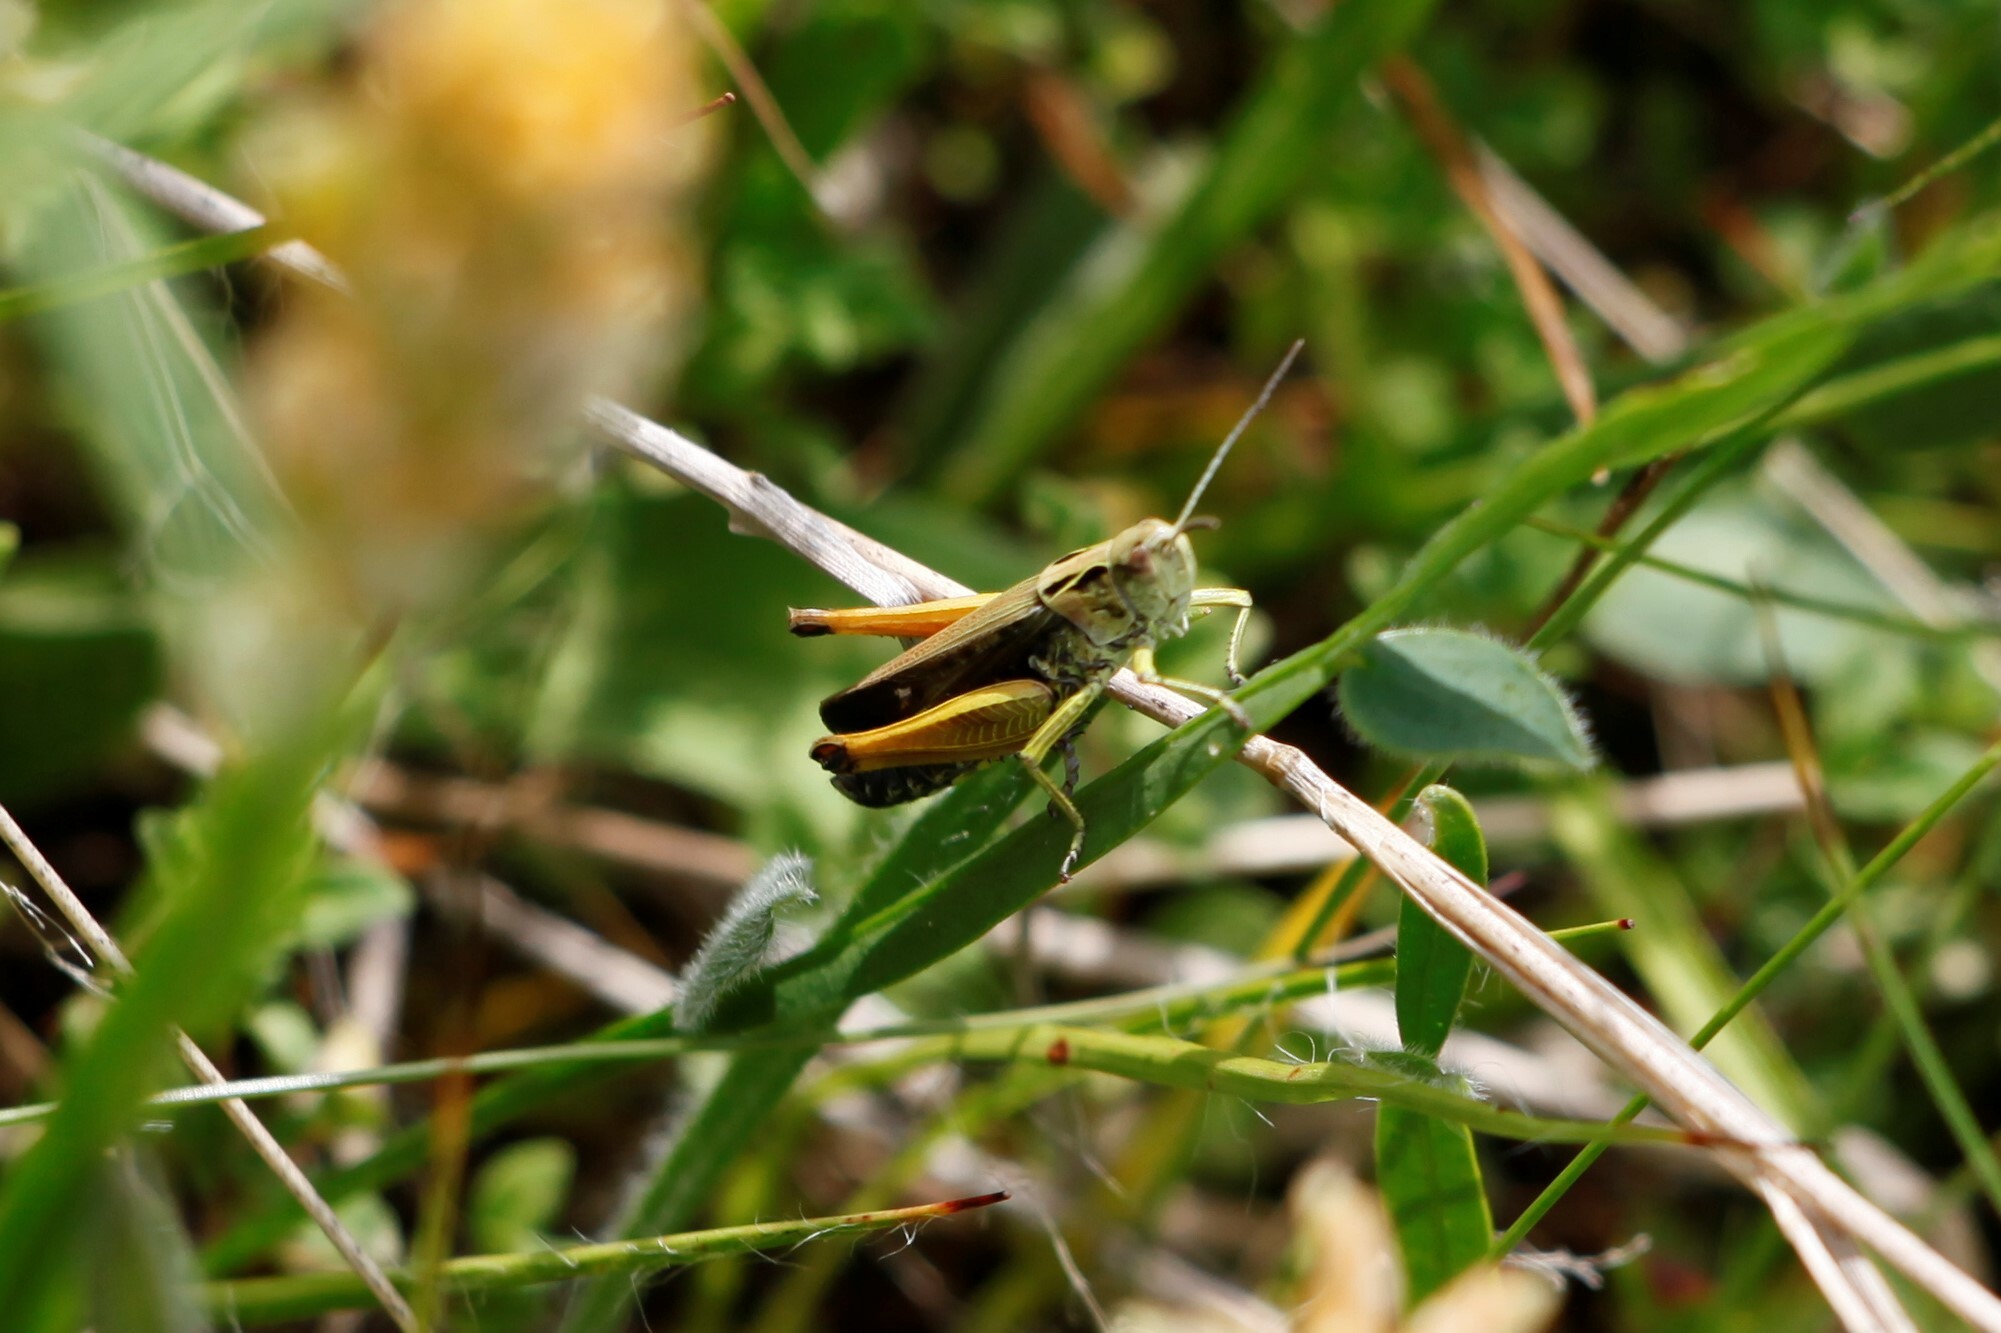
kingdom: Animalia
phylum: Arthropoda
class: Insecta
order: Orthoptera
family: Acrididae
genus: Omocestus
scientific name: Omocestus viridulus
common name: Common green grasshopper
